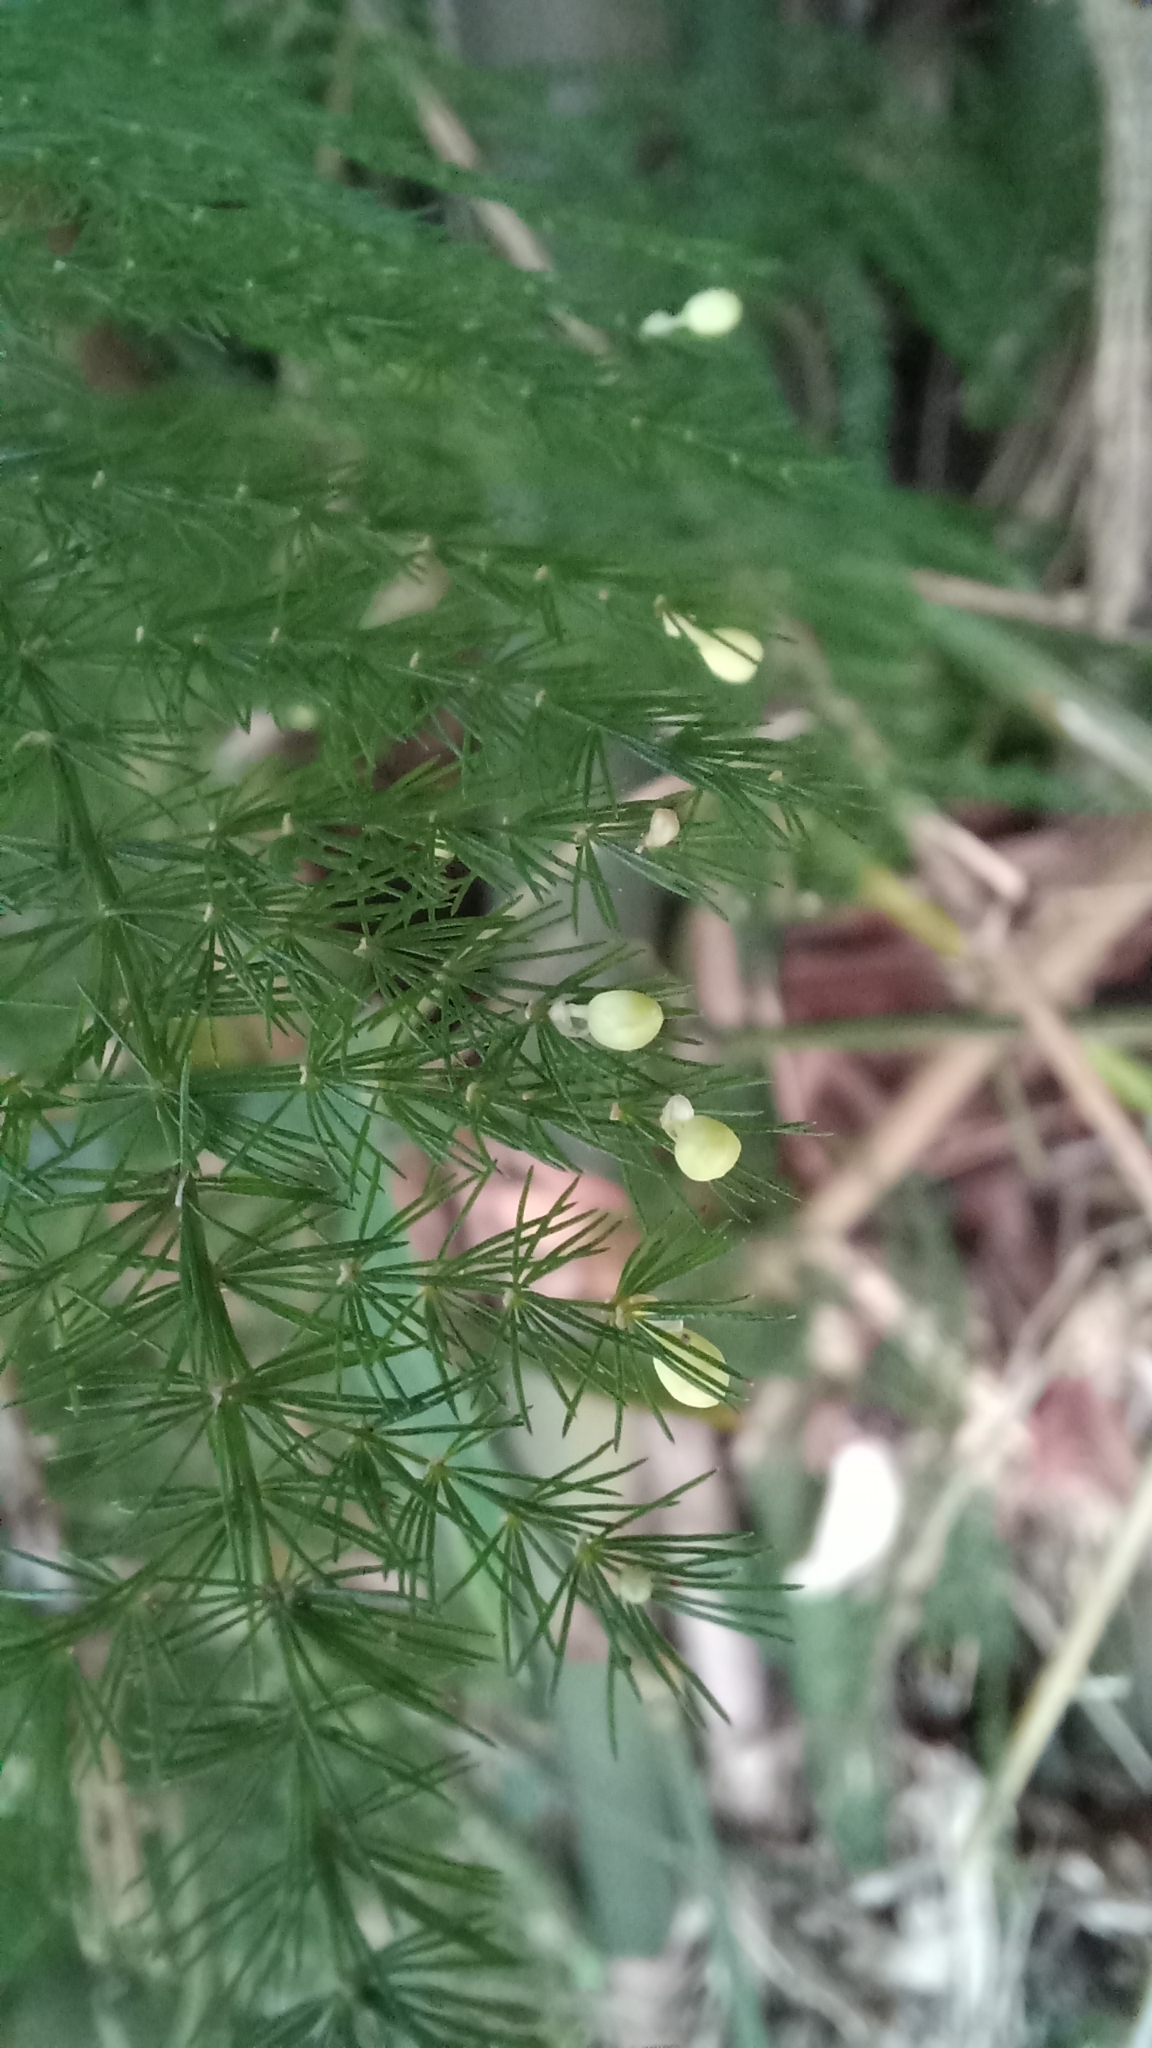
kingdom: Plantae
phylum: Tracheophyta
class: Liliopsida
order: Asparagales
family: Asparagaceae
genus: Asparagus
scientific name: Asparagus setaceus
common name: Common asparagus fern
